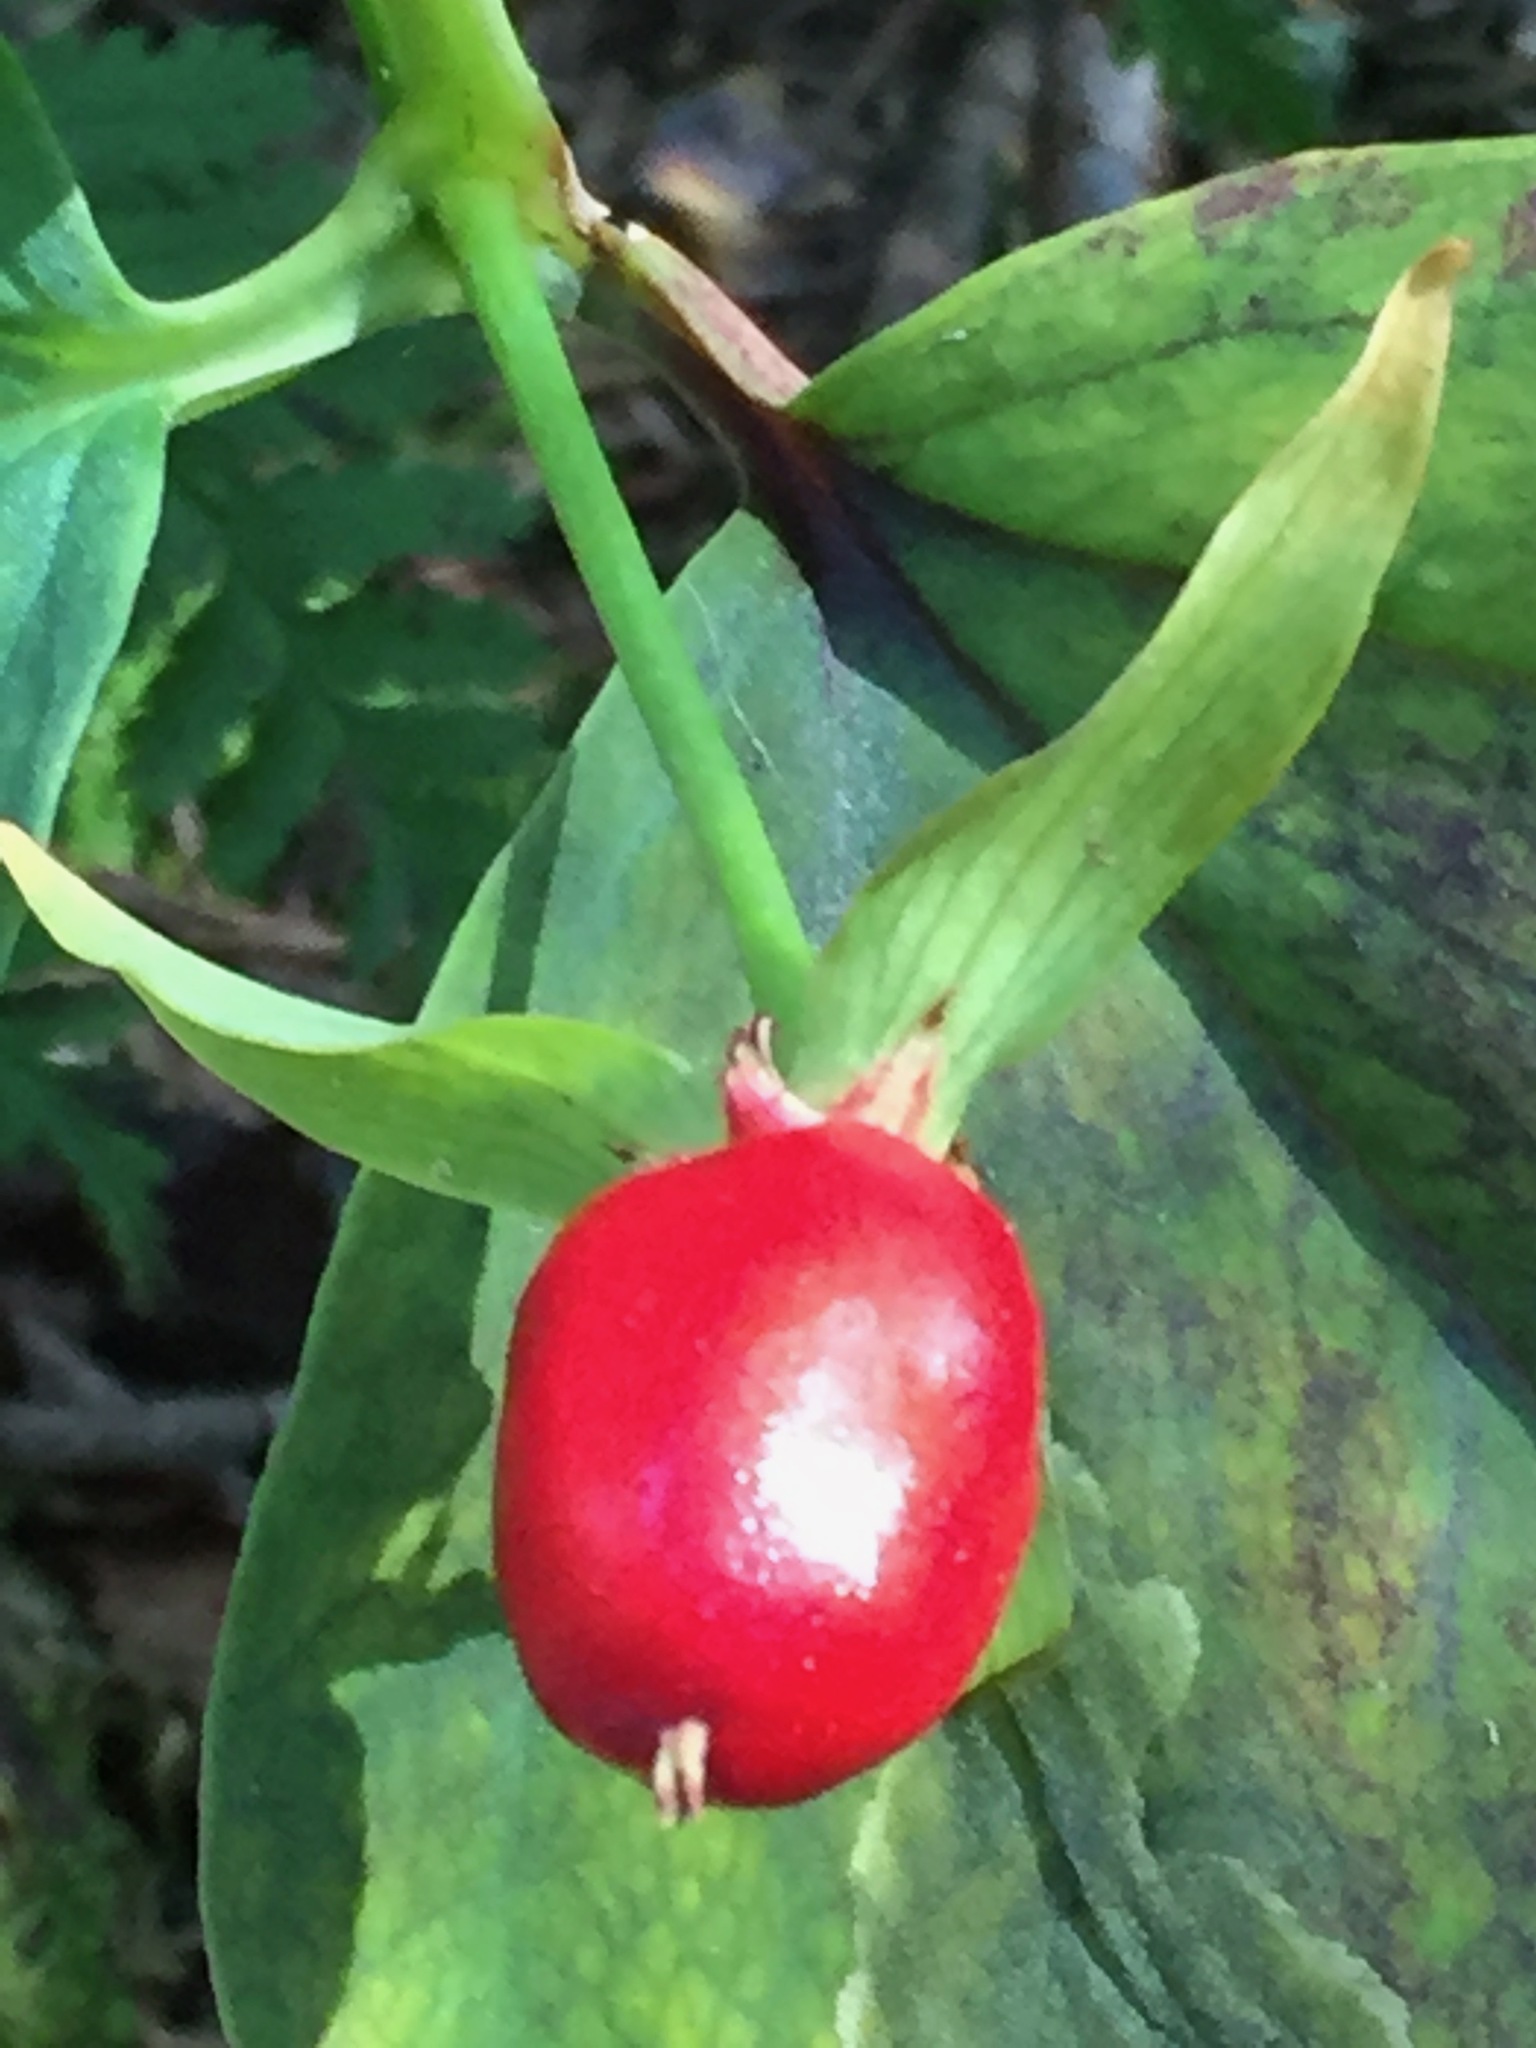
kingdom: Plantae
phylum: Tracheophyta
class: Liliopsida
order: Liliales
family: Melanthiaceae
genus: Trillium
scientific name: Trillium undulatum
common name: Paint trillium
